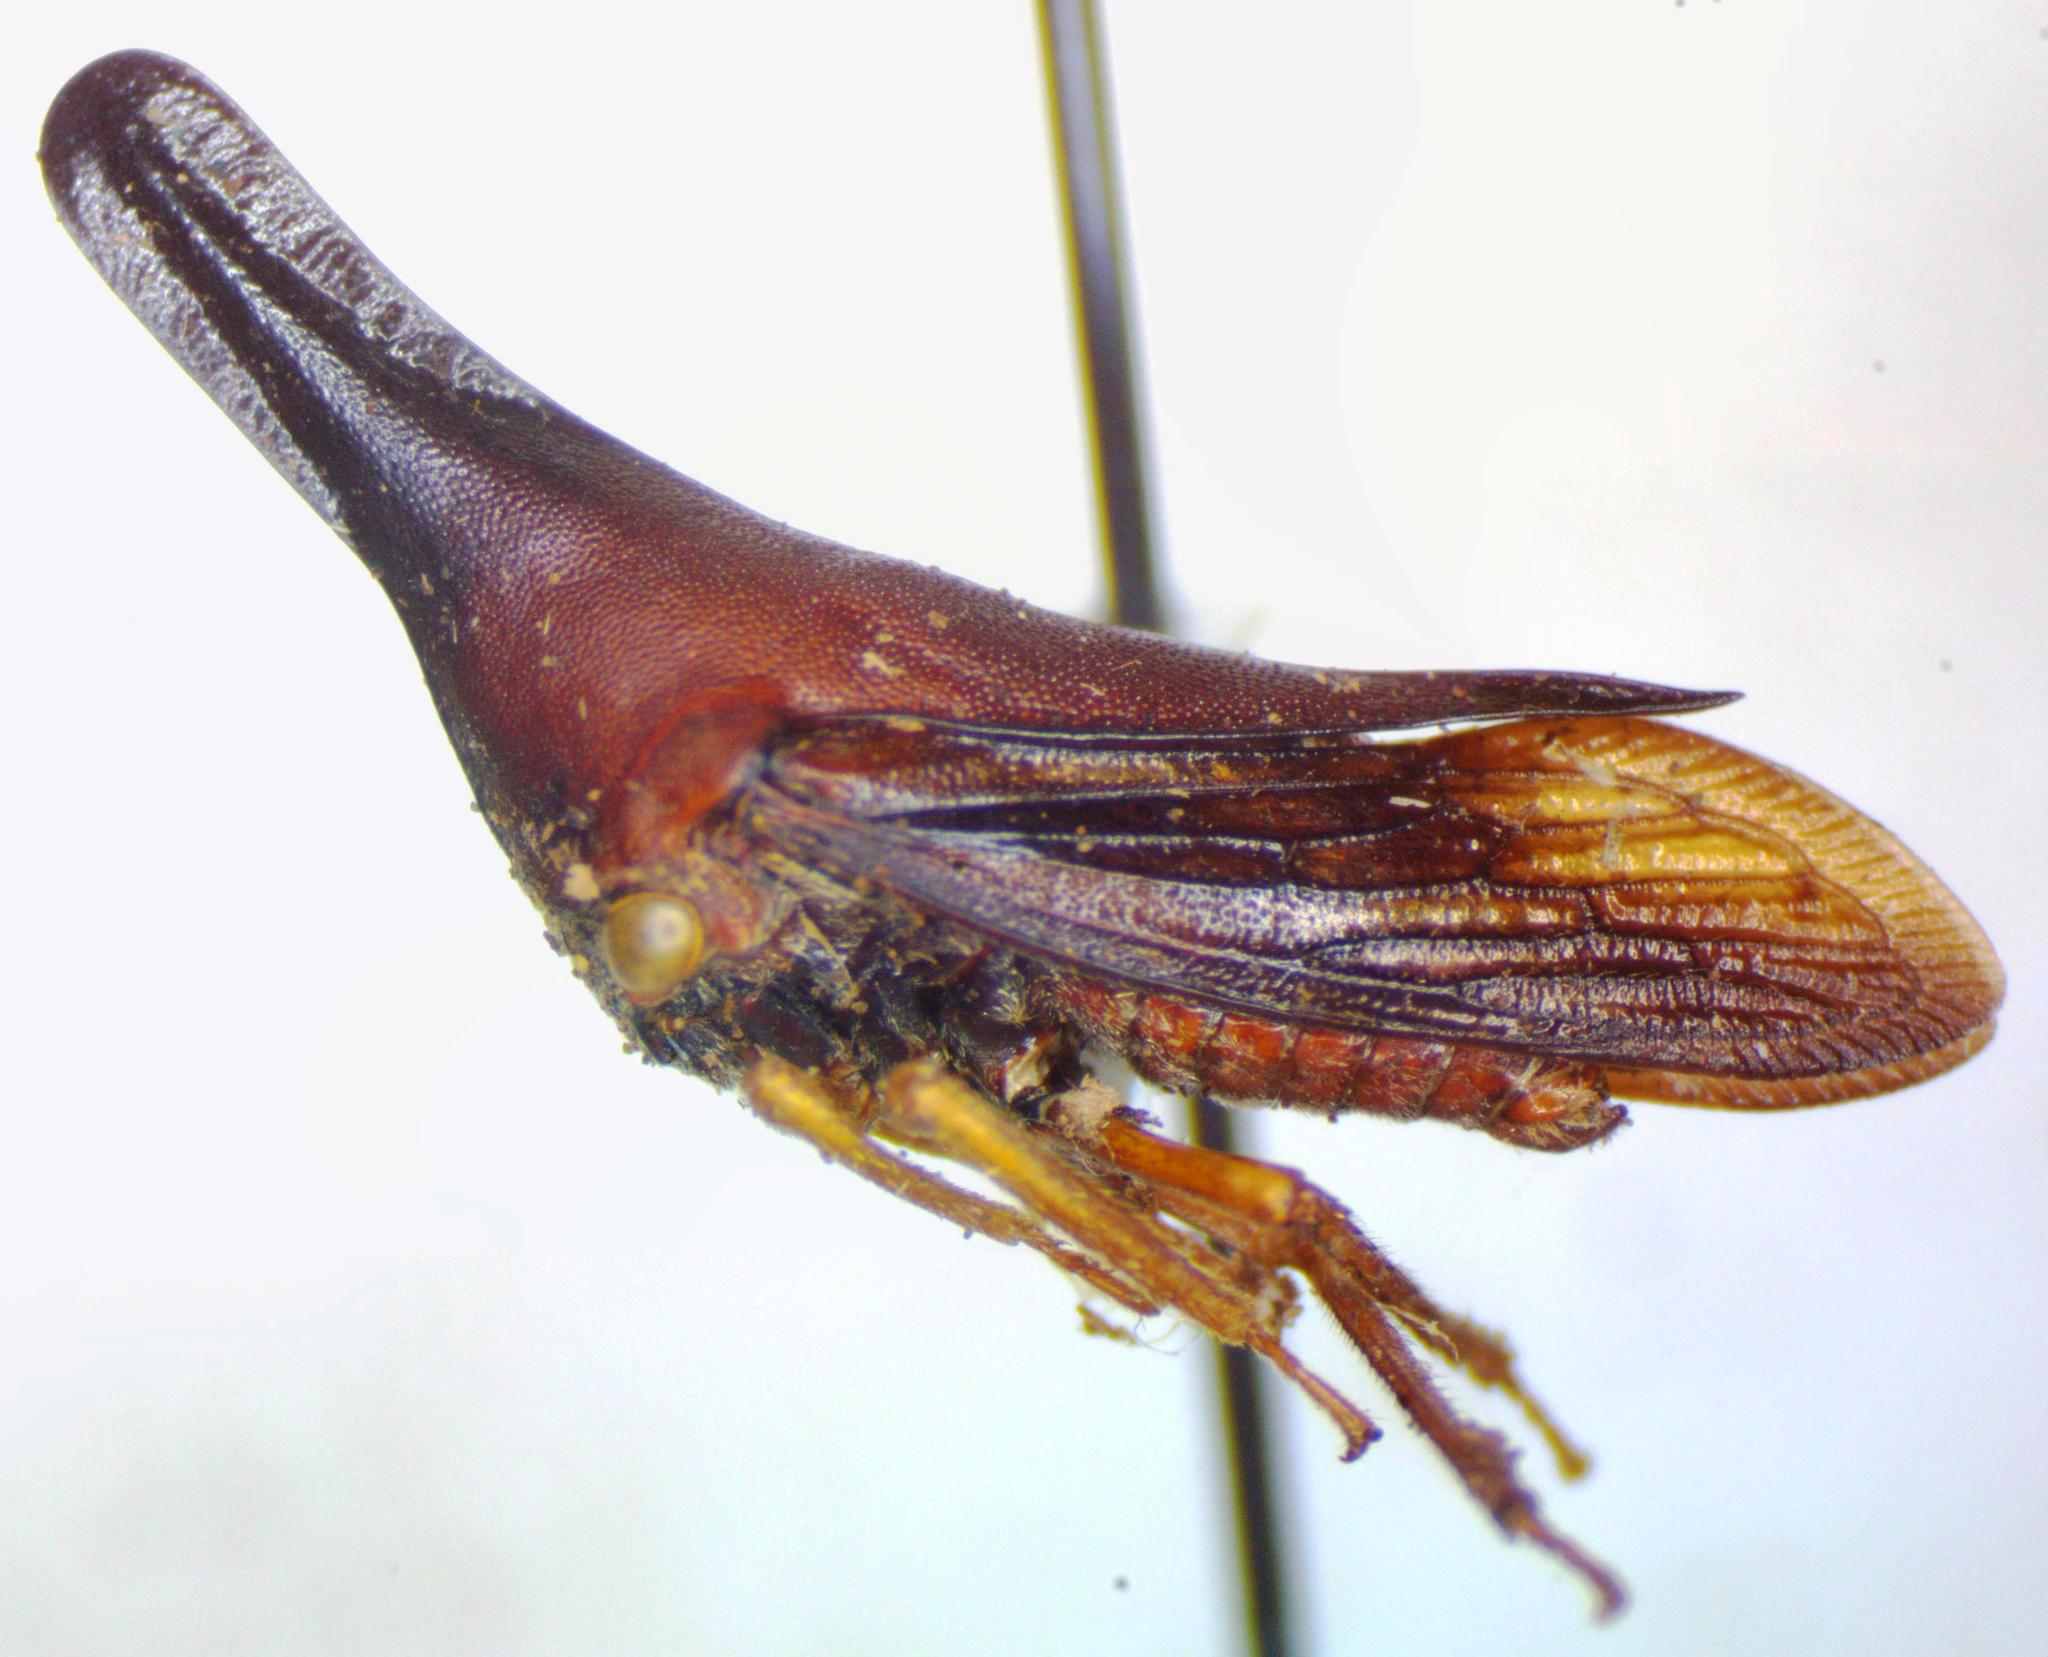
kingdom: Animalia
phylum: Arthropoda
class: Insecta
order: Hemiptera
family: Membracidae
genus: Aconophora
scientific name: Aconophora laminata
